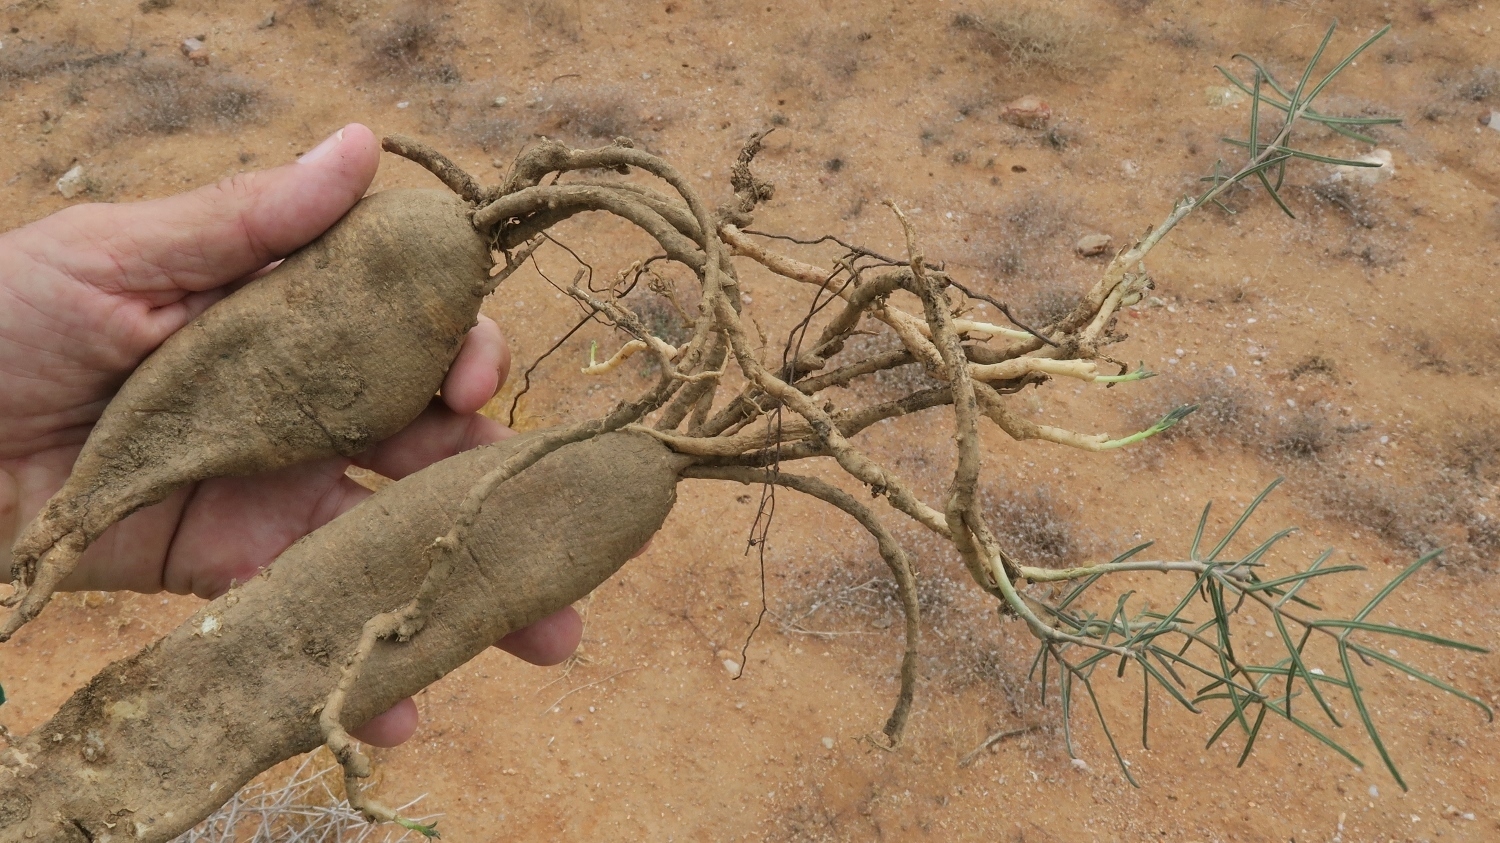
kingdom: Plantae
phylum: Tracheophyta
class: Magnoliopsida
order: Gentianales
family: Apocynaceae
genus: Fockea
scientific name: Fockea comaru
